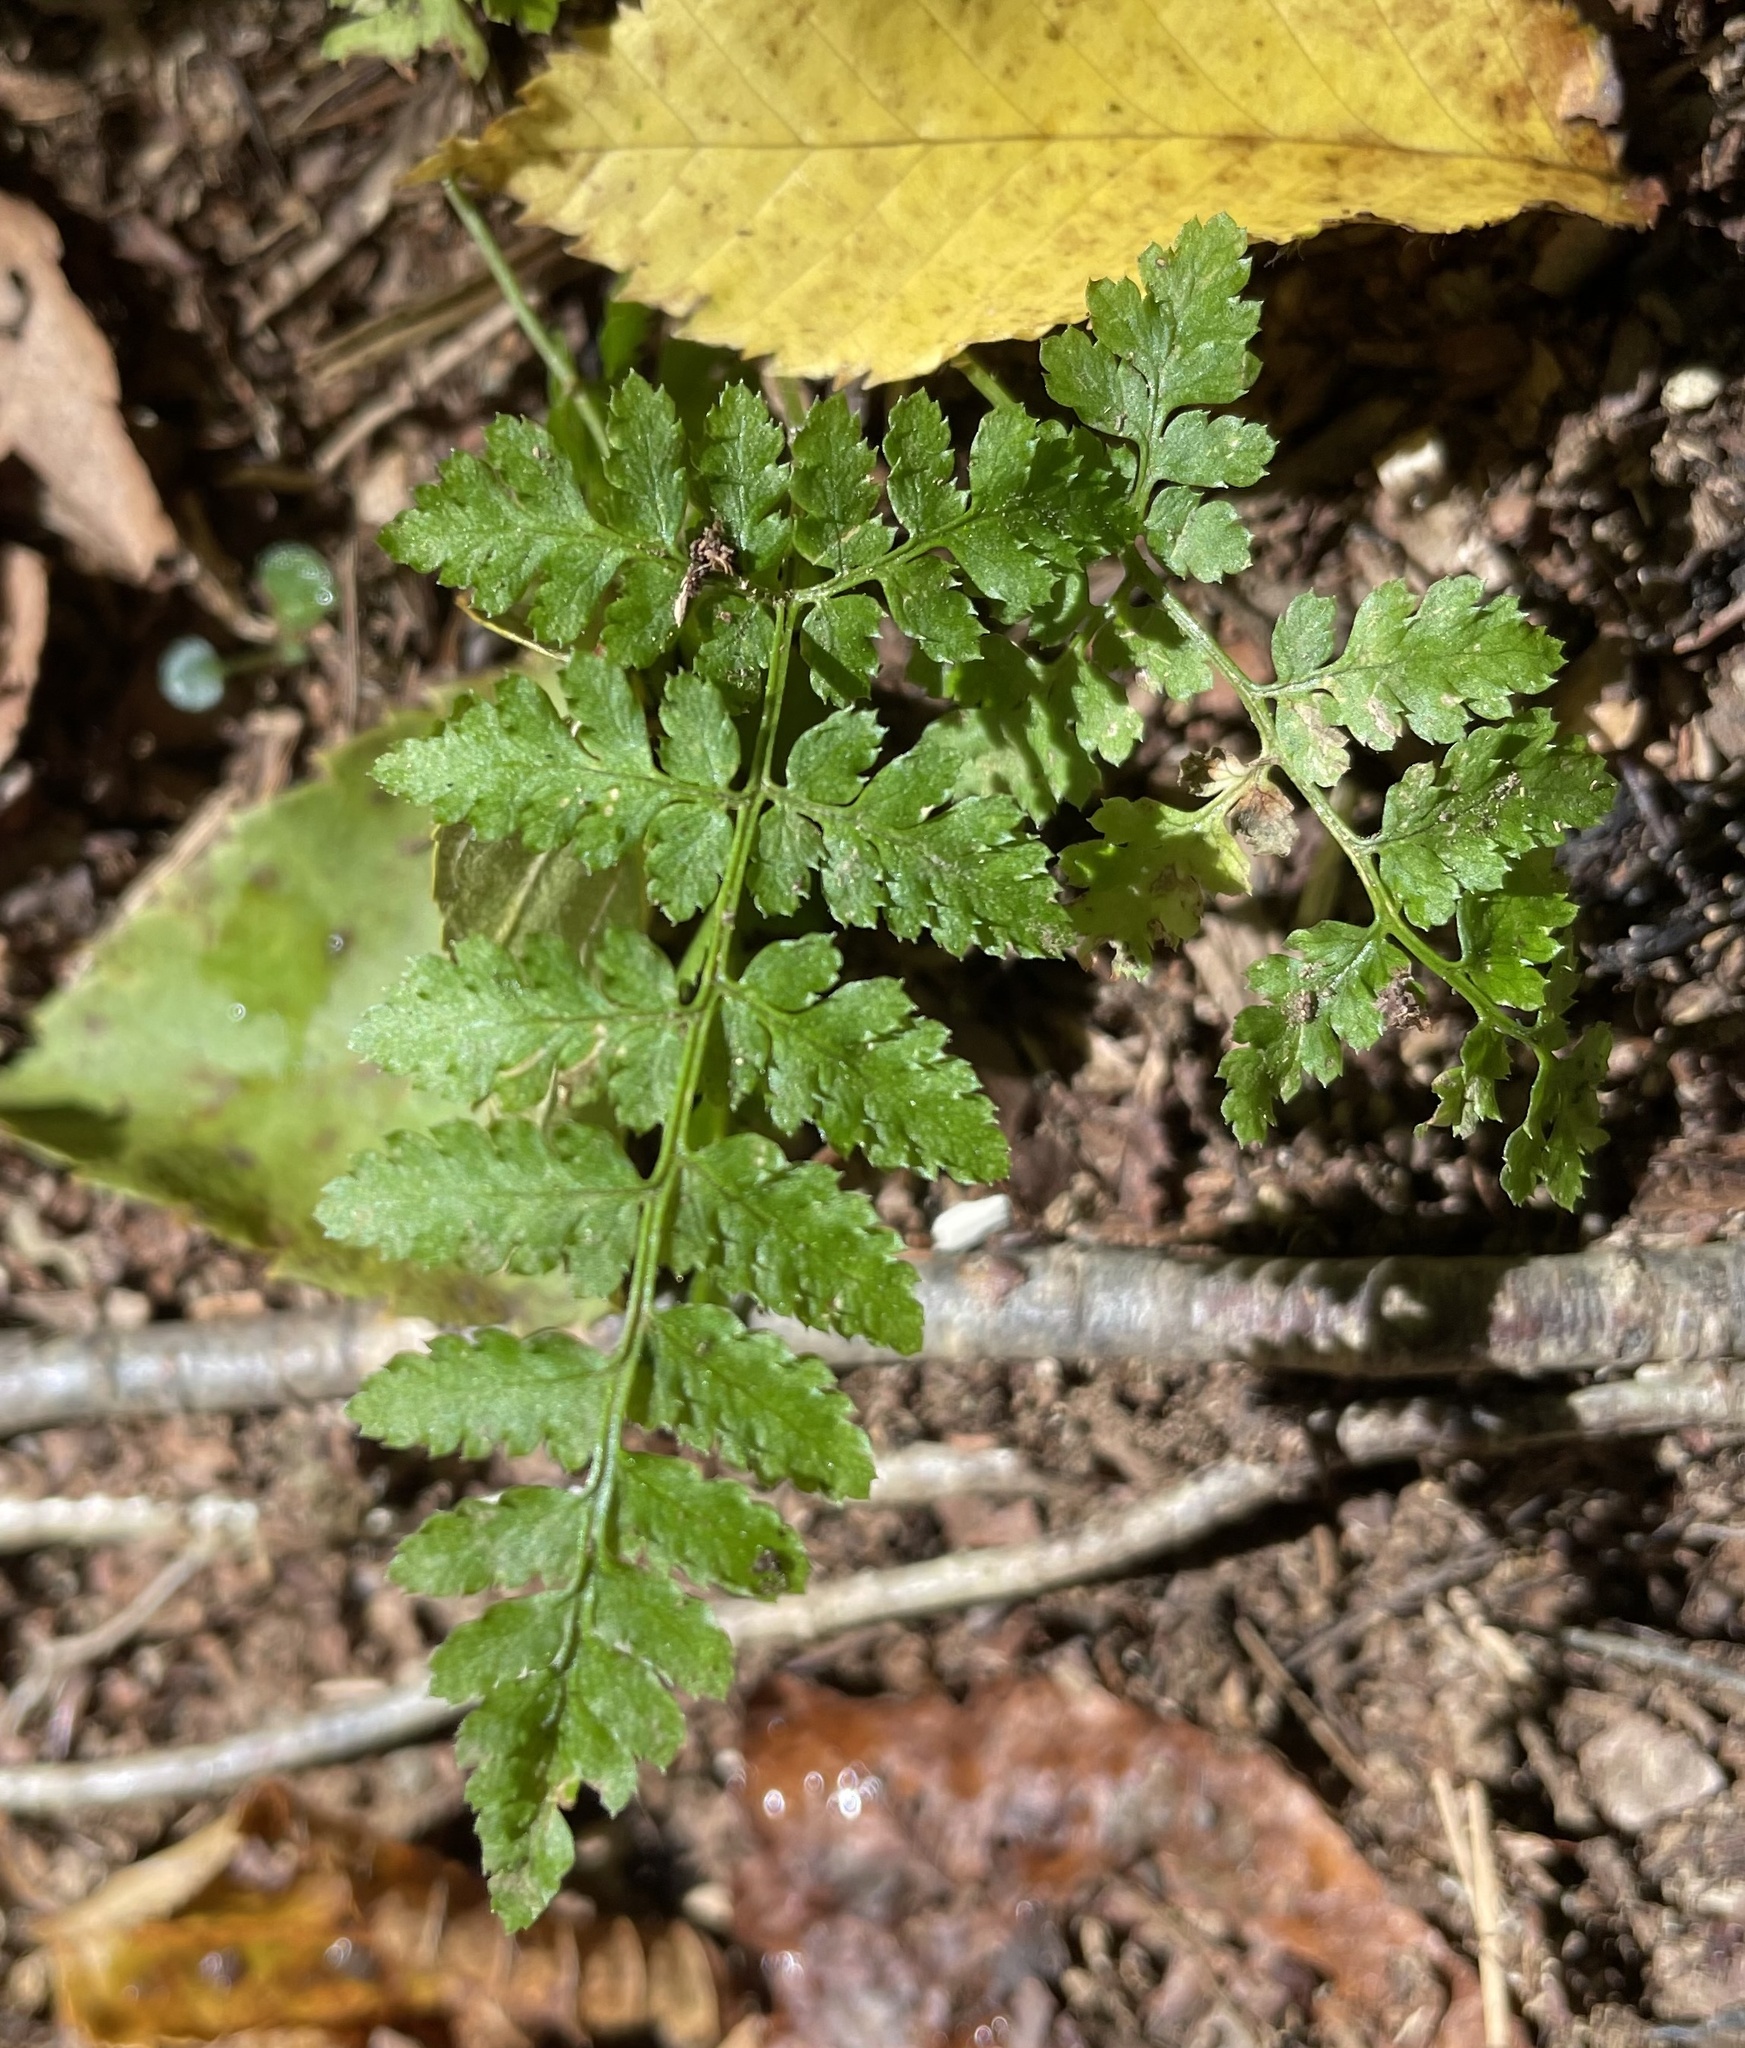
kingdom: Plantae
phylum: Tracheophyta
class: Polypodiopsida
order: Polypodiales
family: Dryopteridaceae
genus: Dryopteris
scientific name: Dryopteris intermedia
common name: Evergreen wood fern
